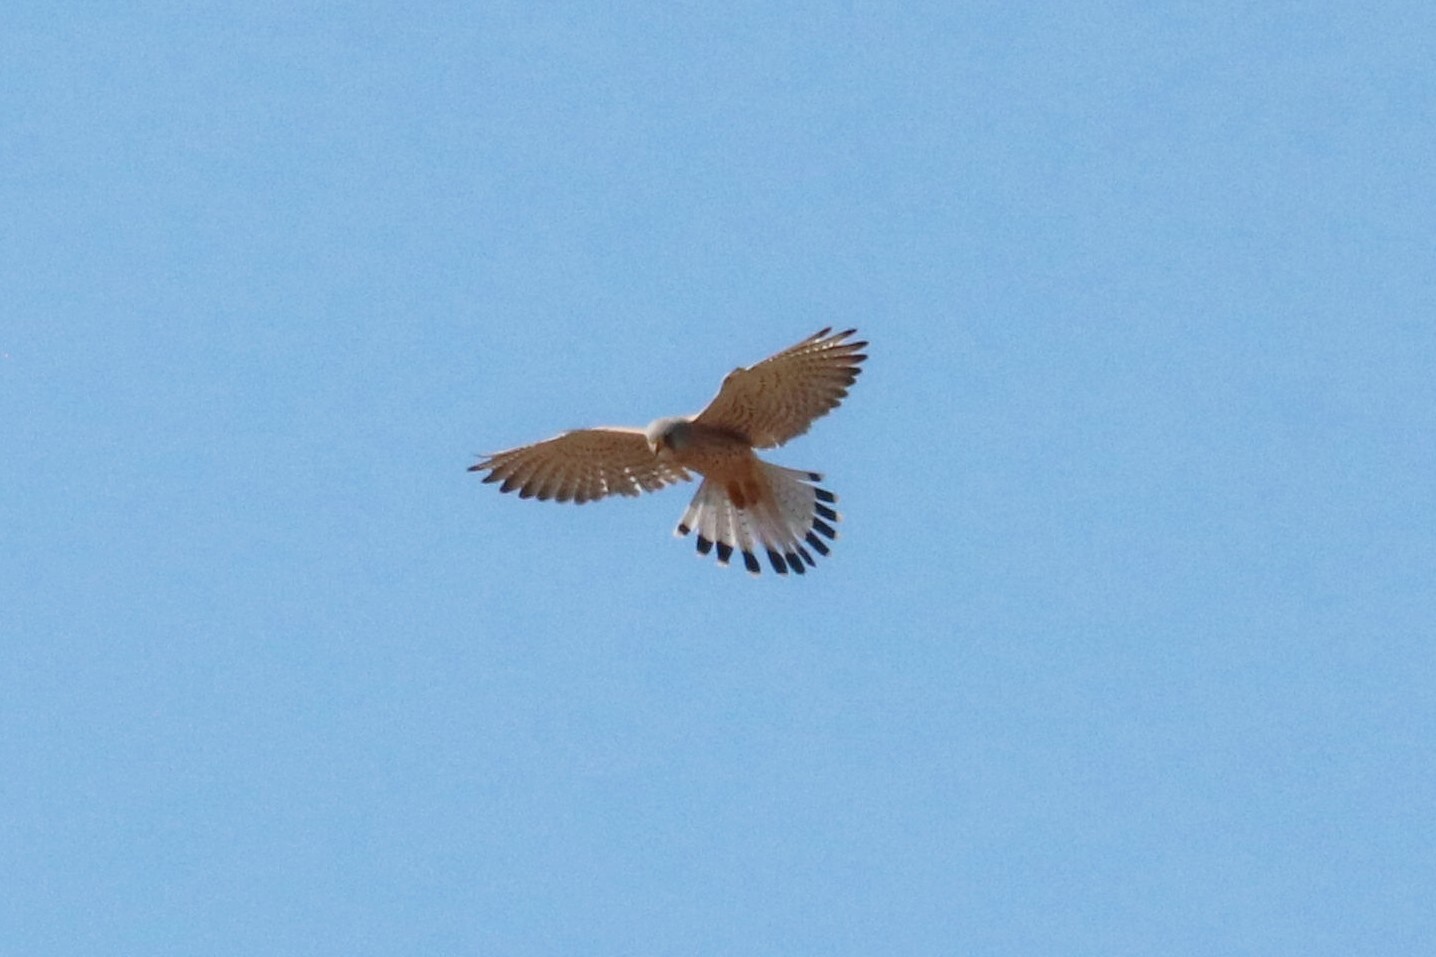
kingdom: Animalia
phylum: Chordata
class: Aves
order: Falconiformes
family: Falconidae
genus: Falco
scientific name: Falco tinnunculus
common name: Common kestrel
